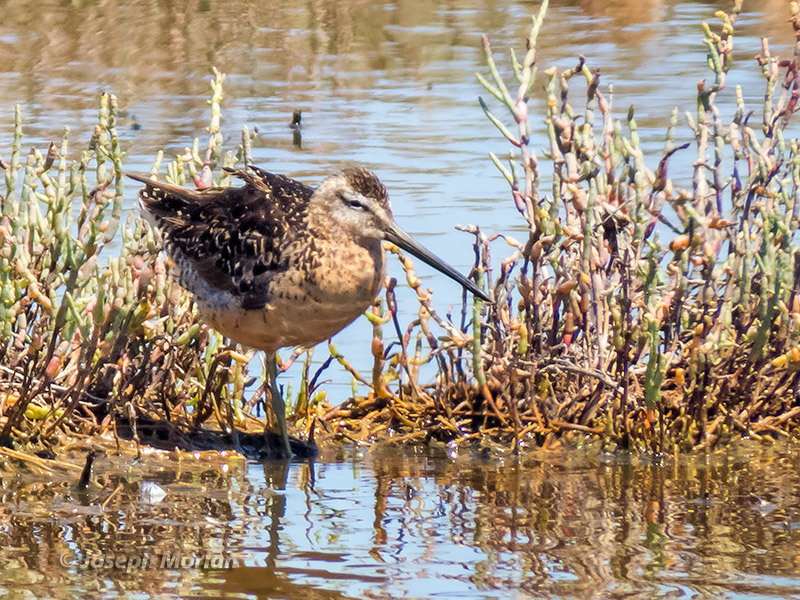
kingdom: Animalia
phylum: Chordata
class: Aves
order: Charadriiformes
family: Scolopacidae
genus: Limnodromus
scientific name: Limnodromus scolopaceus
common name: Long-billed dowitcher
